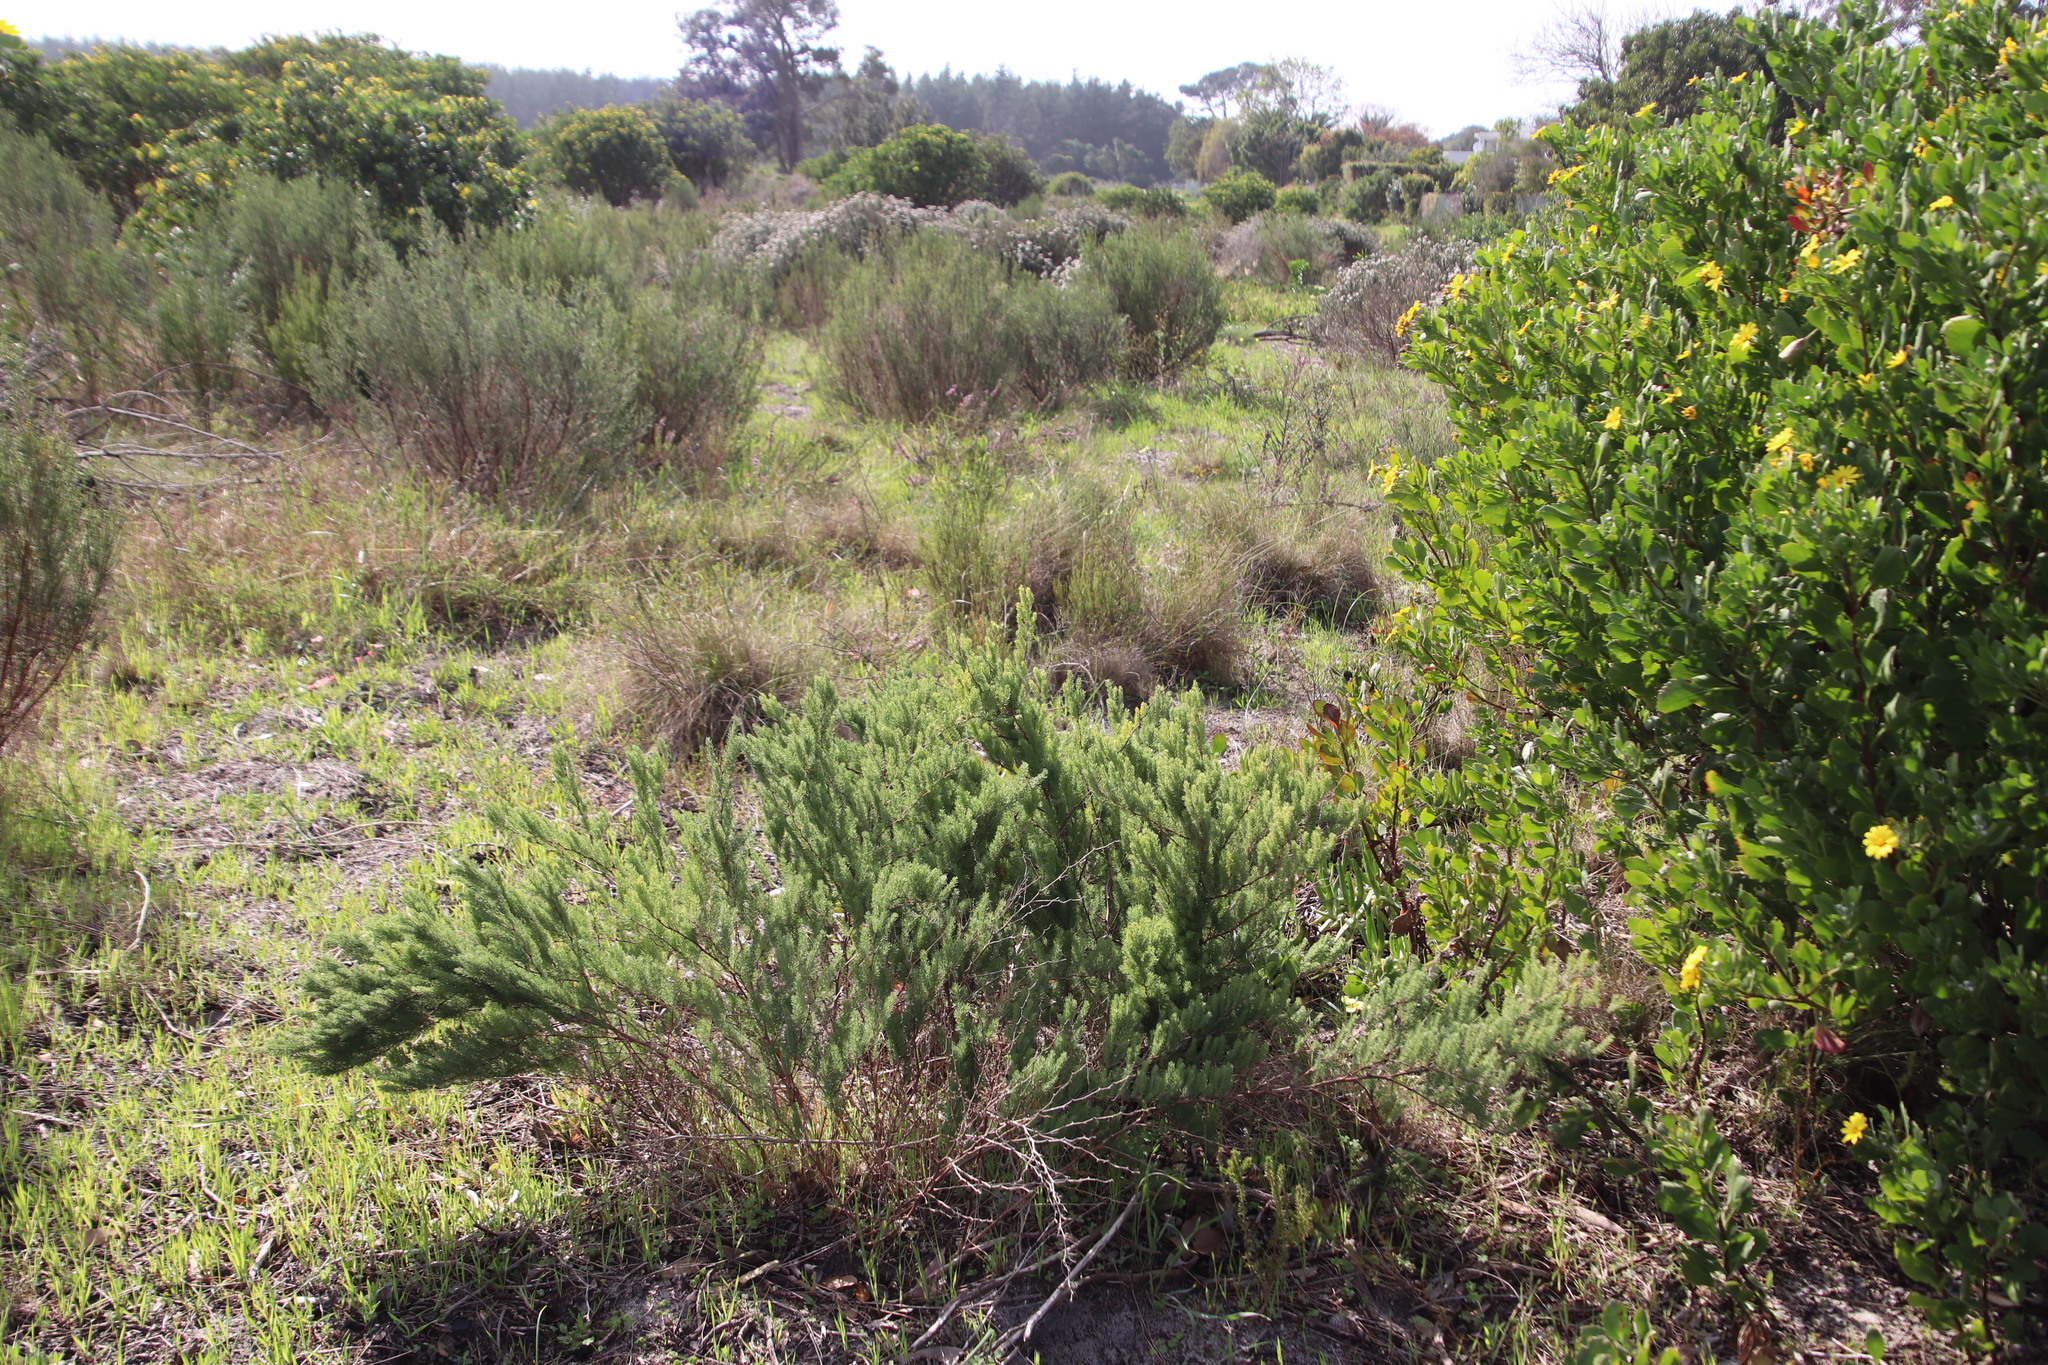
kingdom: Plantae
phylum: Tracheophyta
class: Liliopsida
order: Asparagales
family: Asparagaceae
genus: Asparagus
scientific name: Asparagus rubicundus
